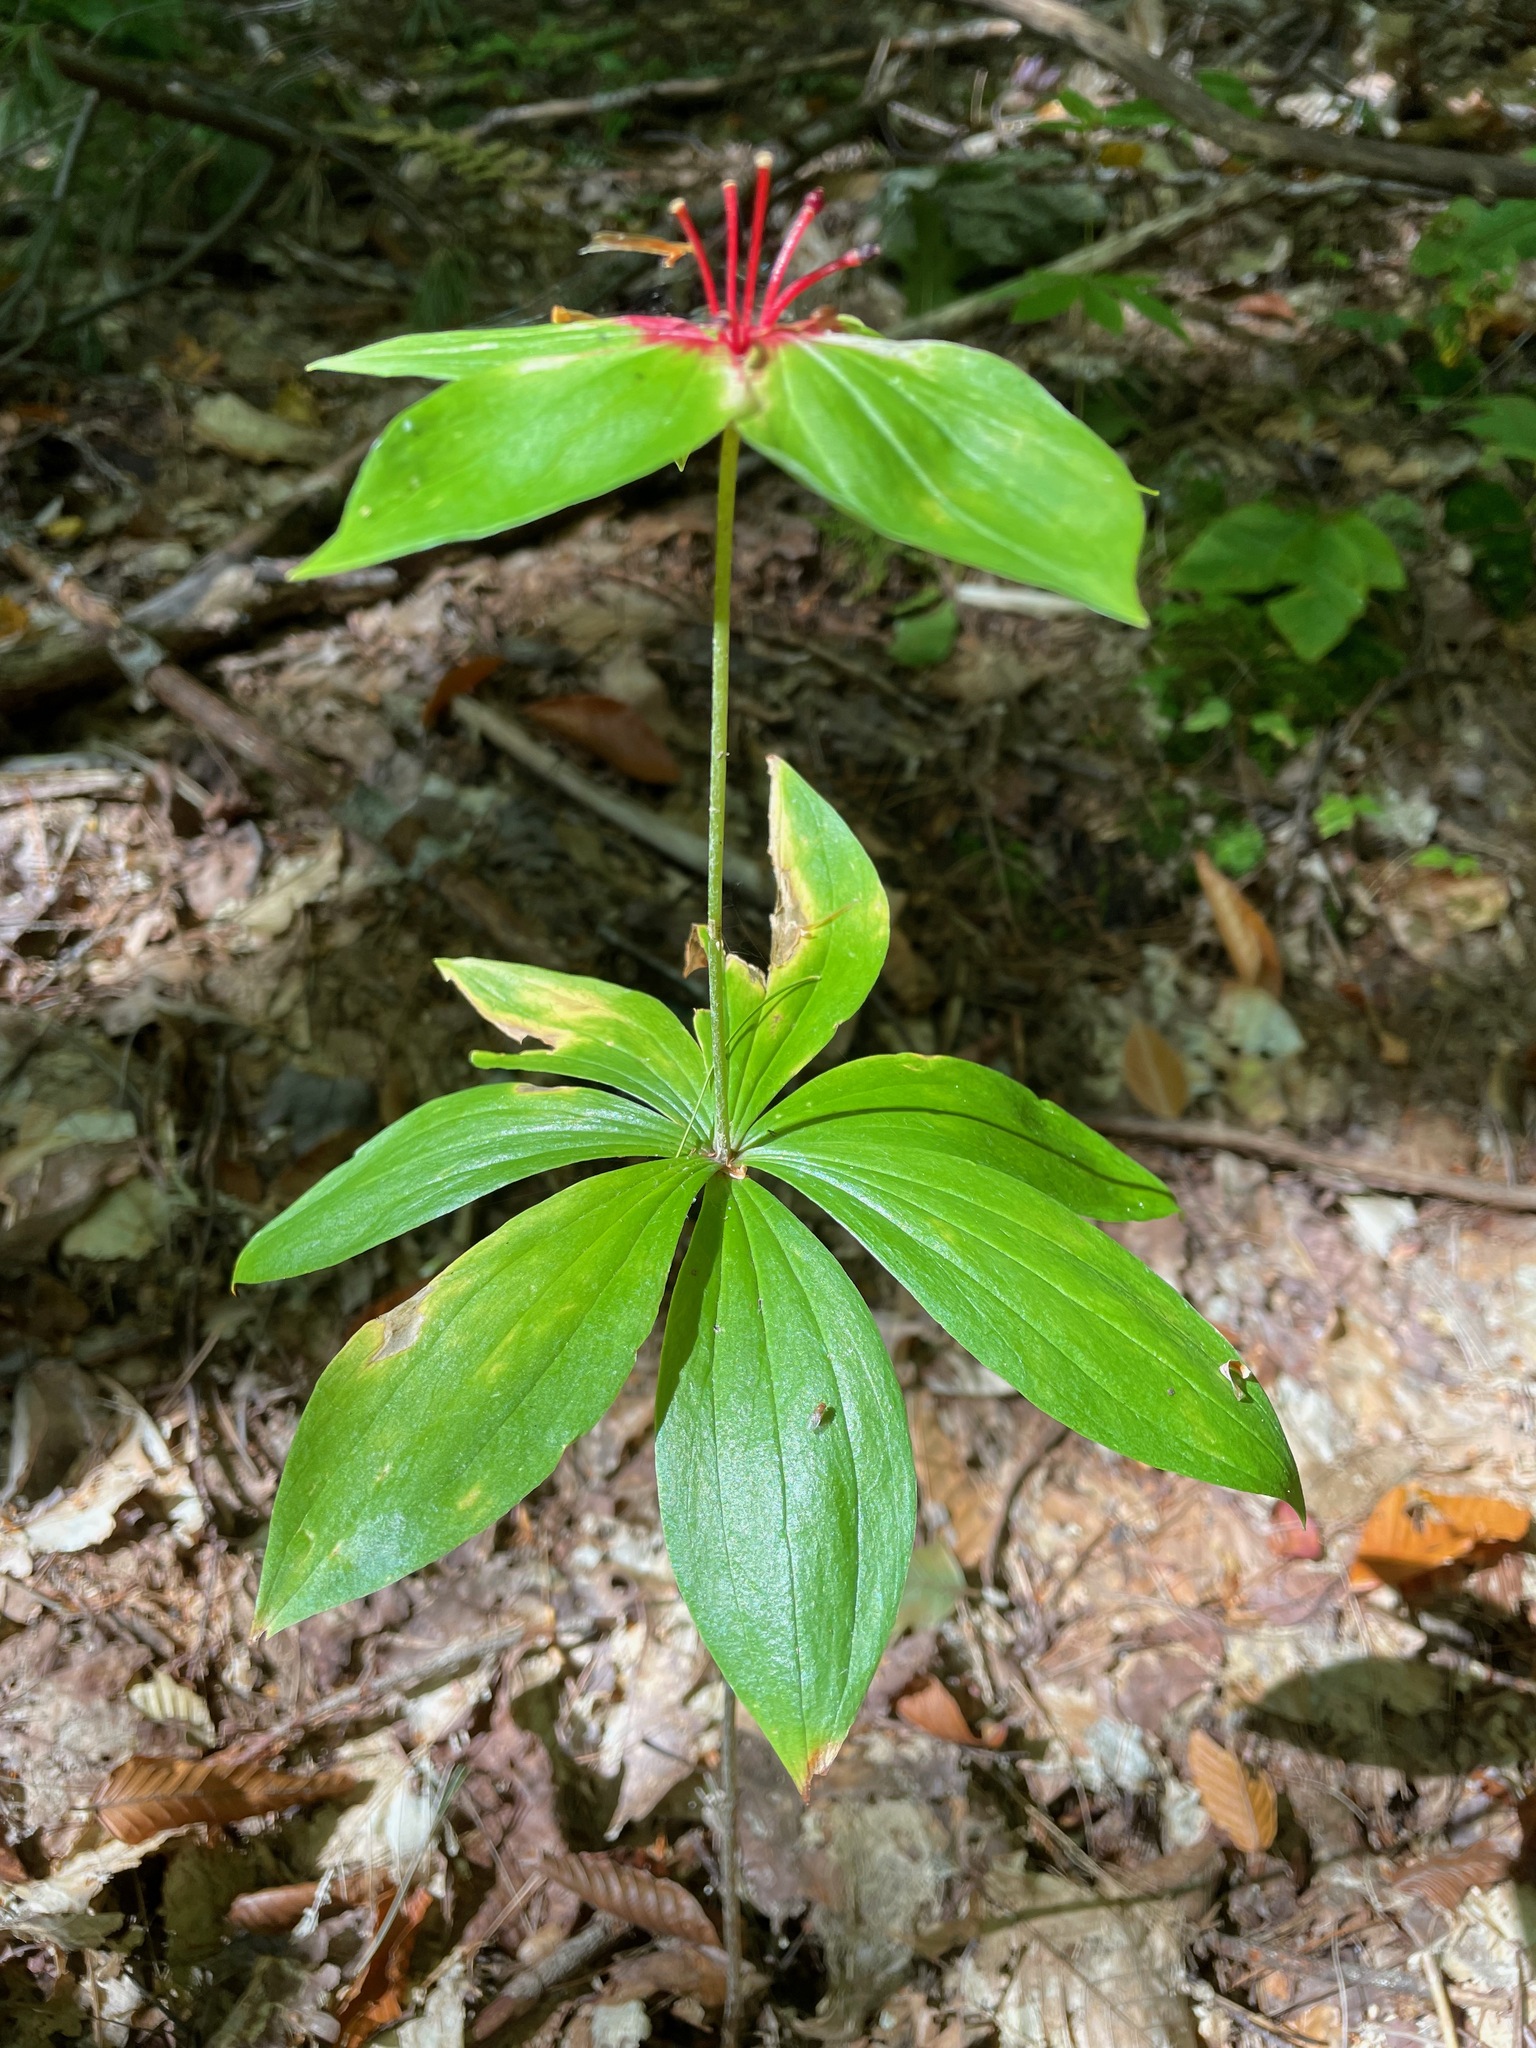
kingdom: Plantae
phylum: Tracheophyta
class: Liliopsida
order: Liliales
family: Liliaceae
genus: Medeola
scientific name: Medeola virginiana
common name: Indian cucumber-root
